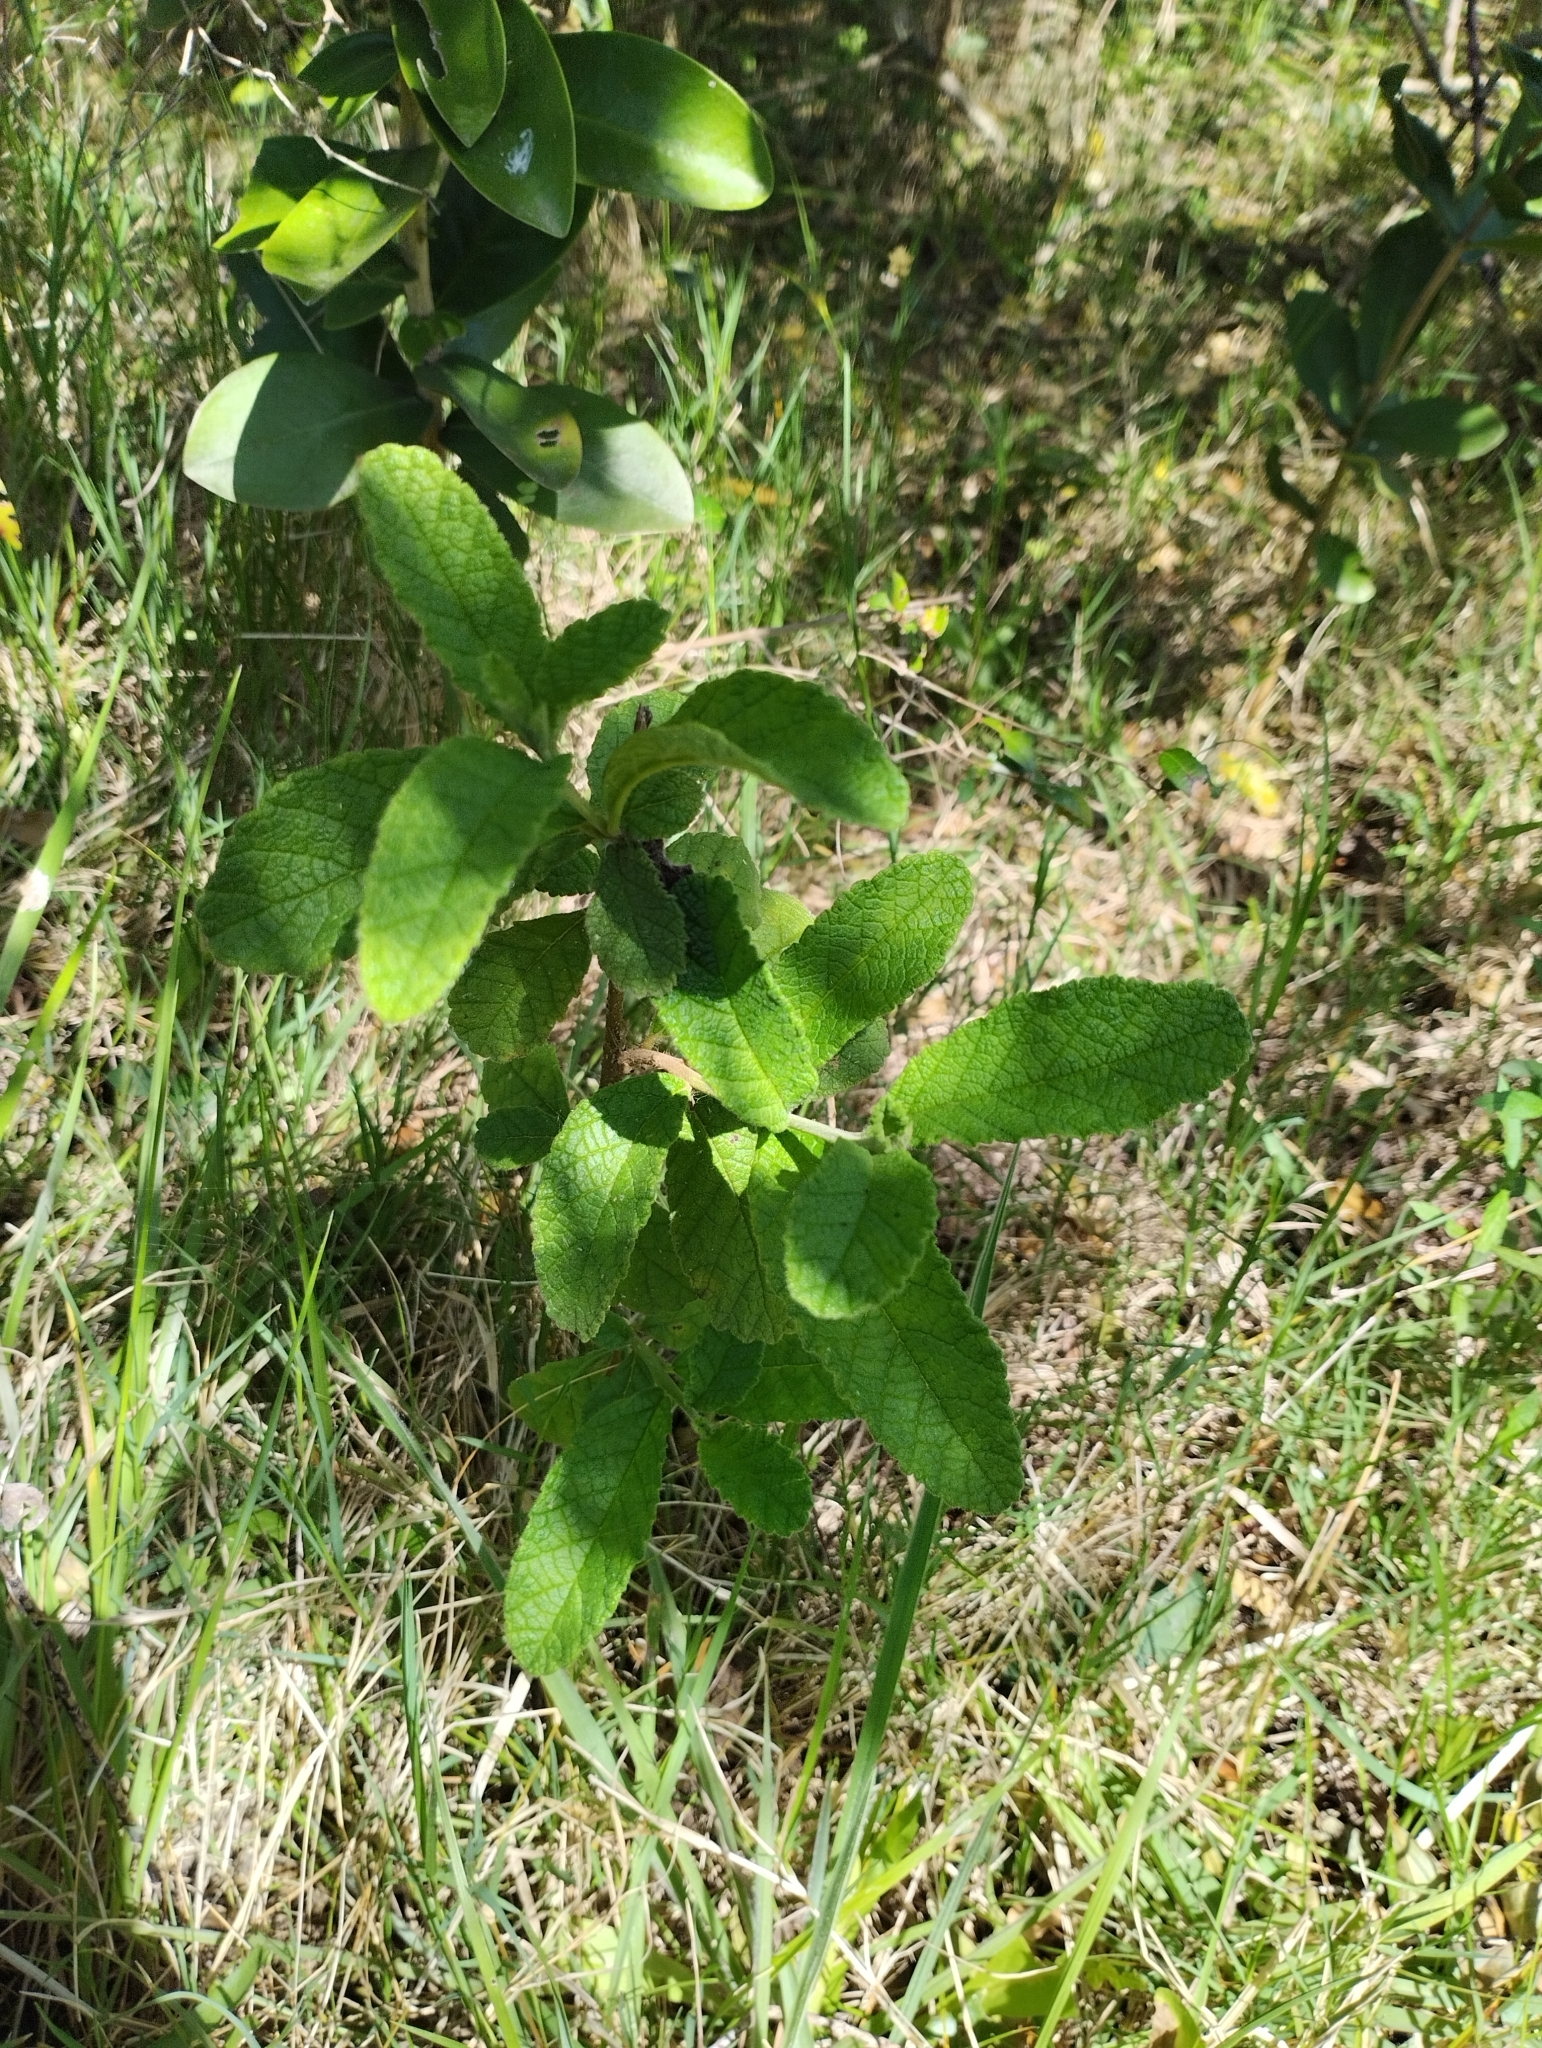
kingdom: Plantae
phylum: Tracheophyta
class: Magnoliopsida
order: Boraginales
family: Cordiaceae
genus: Varronia
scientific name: Varronia curassavica
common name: Black sage
